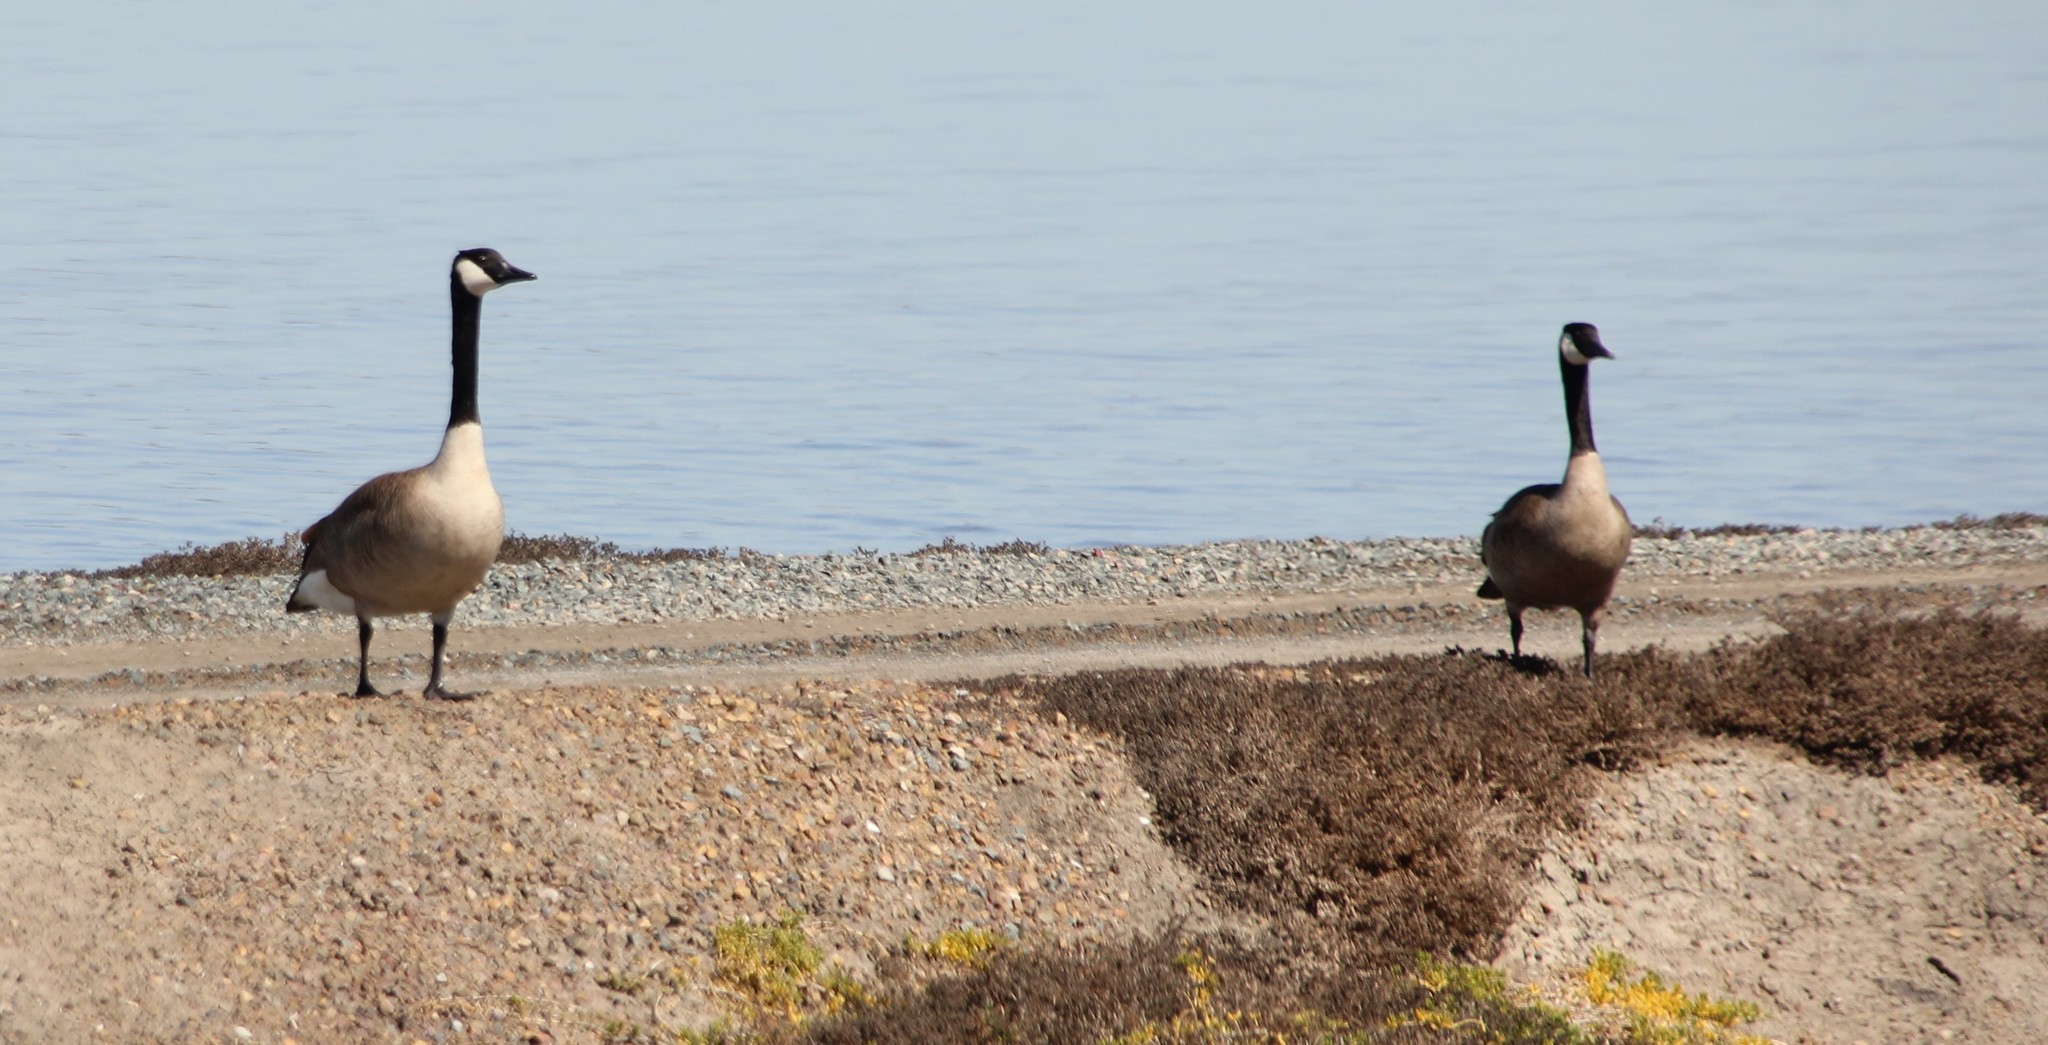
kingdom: Animalia
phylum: Chordata
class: Aves
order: Anseriformes
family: Anatidae
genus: Branta
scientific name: Branta canadensis
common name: Canada goose
